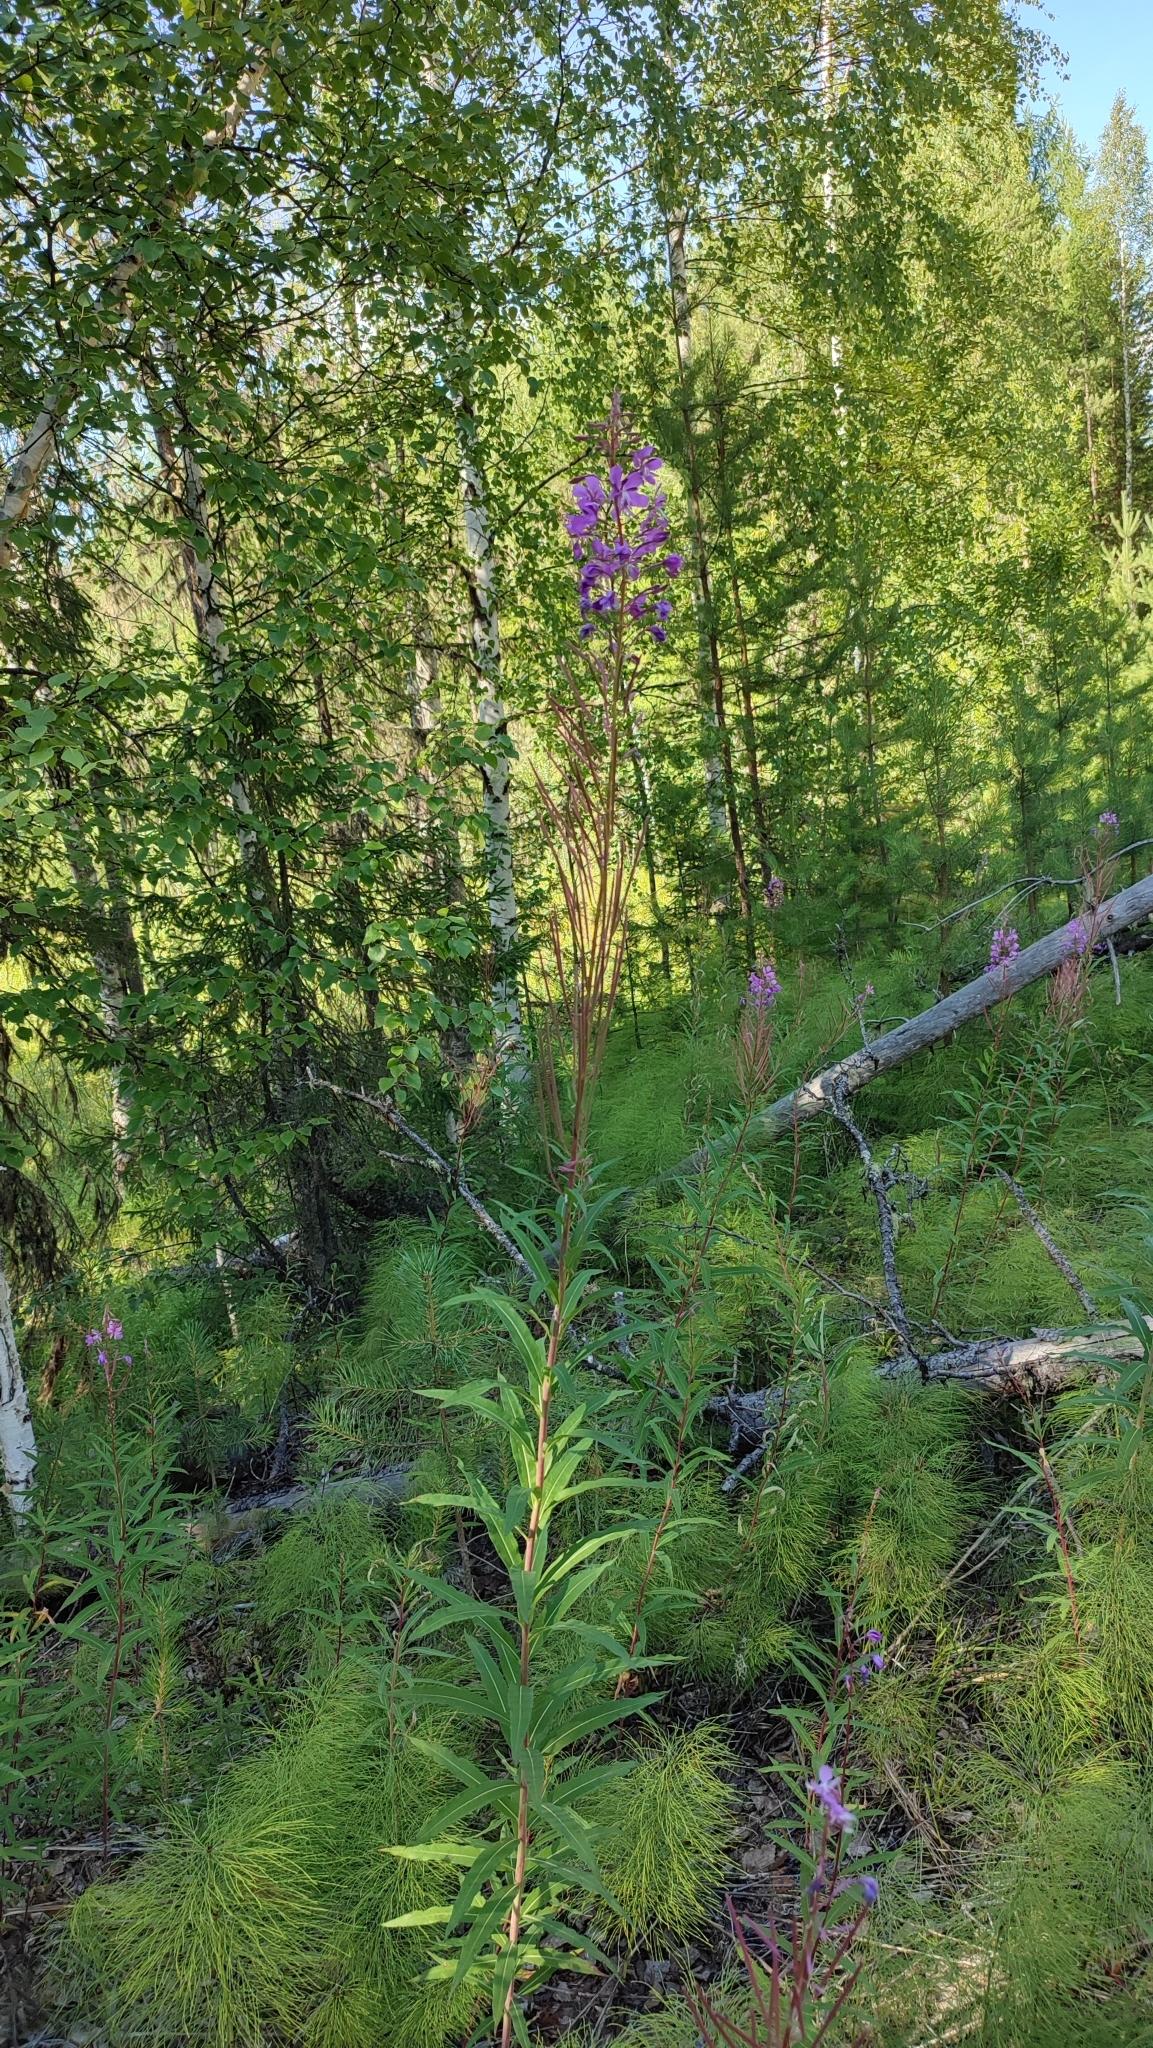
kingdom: Plantae
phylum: Tracheophyta
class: Magnoliopsida
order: Myrtales
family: Onagraceae
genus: Chamaenerion
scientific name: Chamaenerion angustifolium
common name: Fireweed
